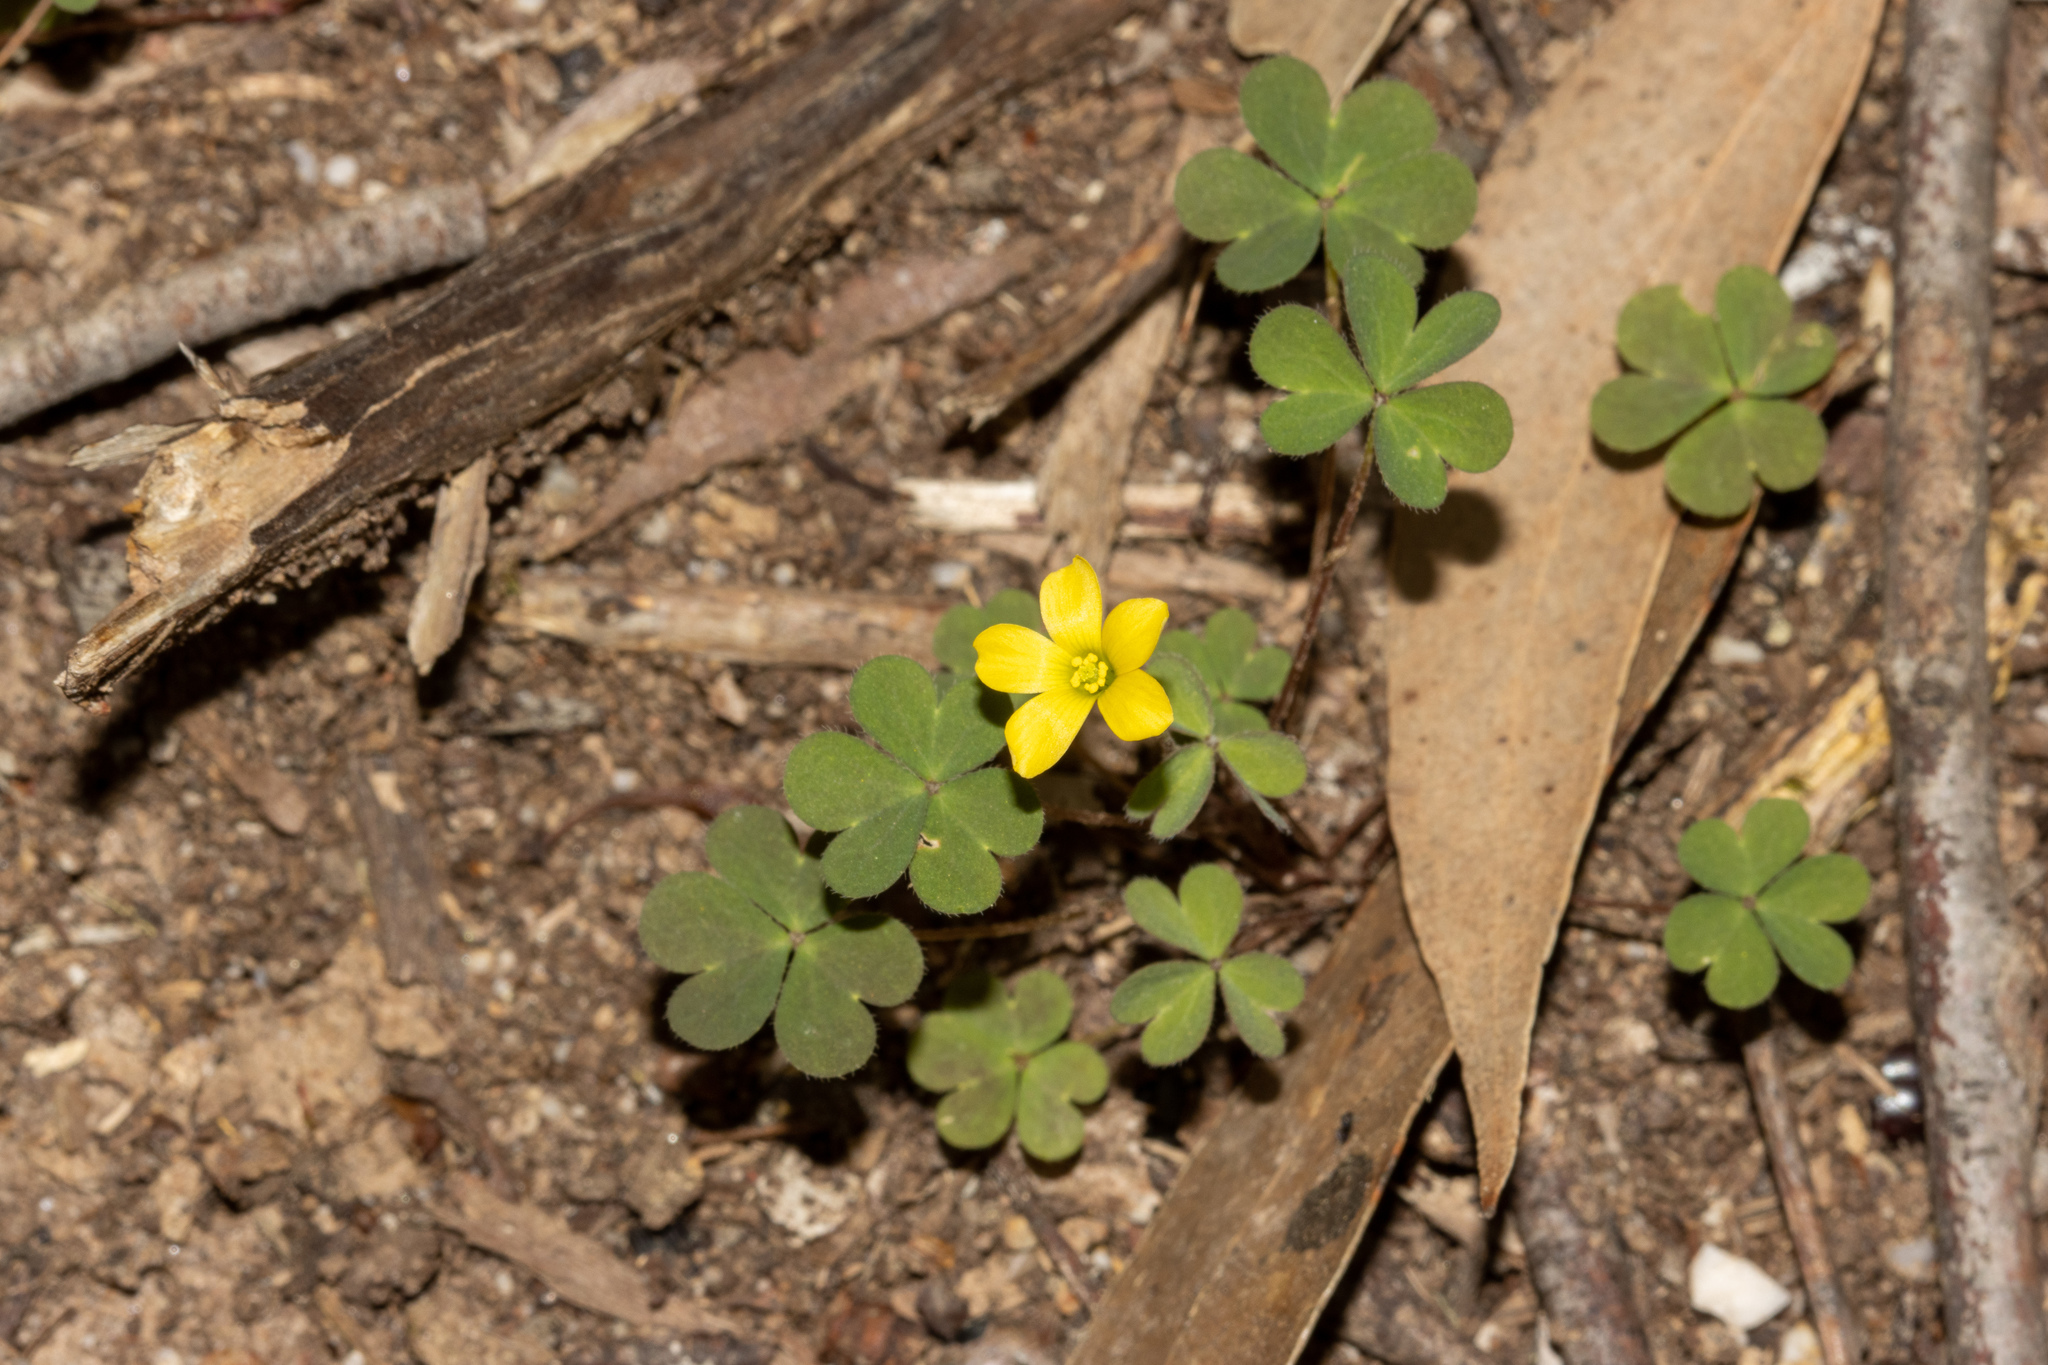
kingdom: Plantae
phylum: Tracheophyta
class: Magnoliopsida
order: Oxalidales
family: Oxalidaceae
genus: Oxalis
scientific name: Oxalis perennans
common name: Woody-rooted yellow-sorrel
